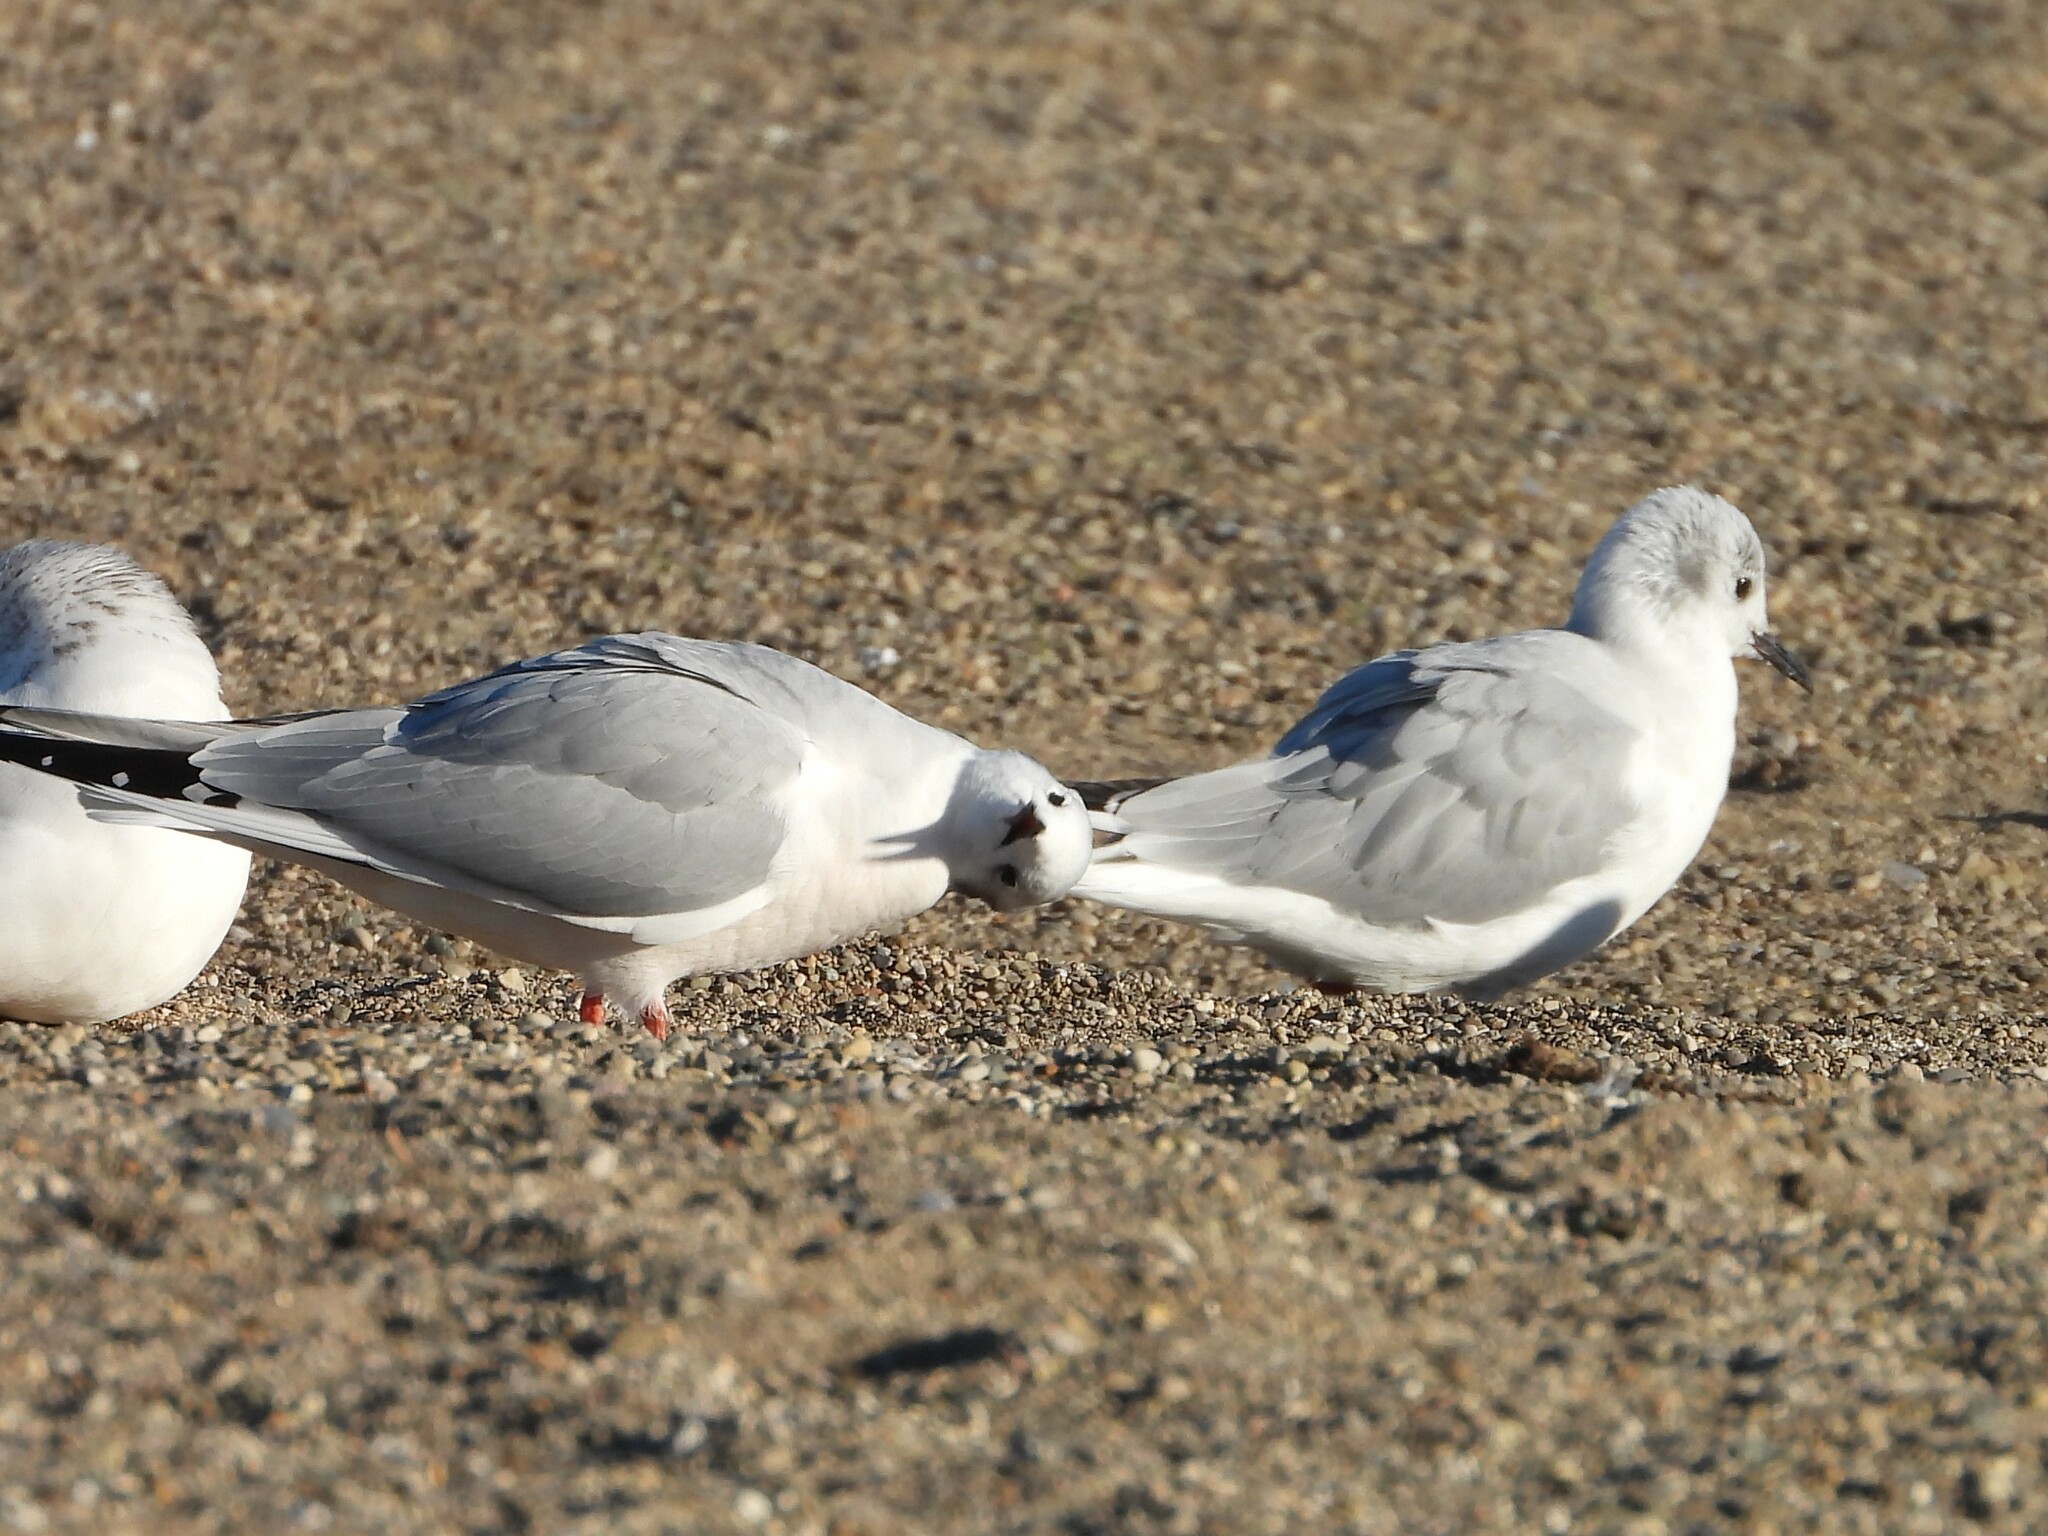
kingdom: Animalia
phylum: Chordata
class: Aves
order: Charadriiformes
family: Laridae
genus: Chroicocephalus
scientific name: Chroicocephalus philadelphia
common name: Bonaparte's gull
